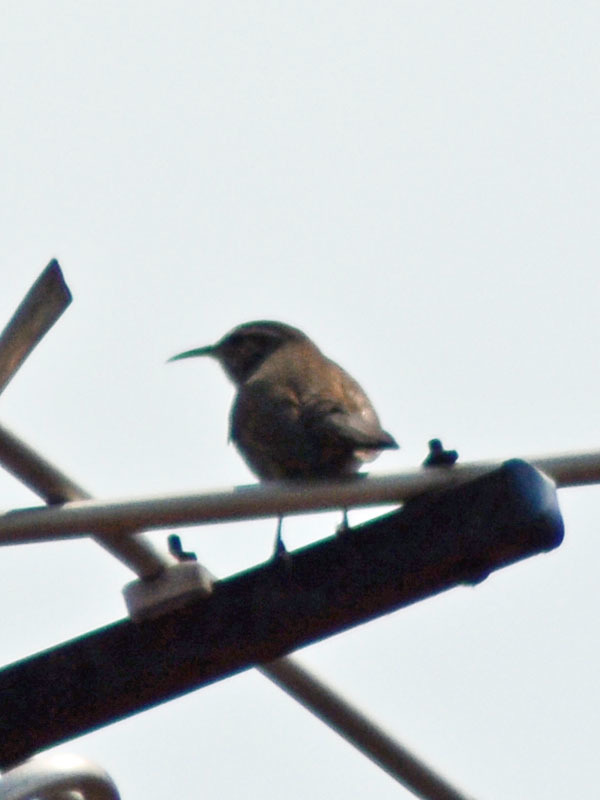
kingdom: Animalia
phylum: Chordata
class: Aves
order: Passeriformes
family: Troglodytidae
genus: Thryomanes
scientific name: Thryomanes bewickii
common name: Bewick's wren
